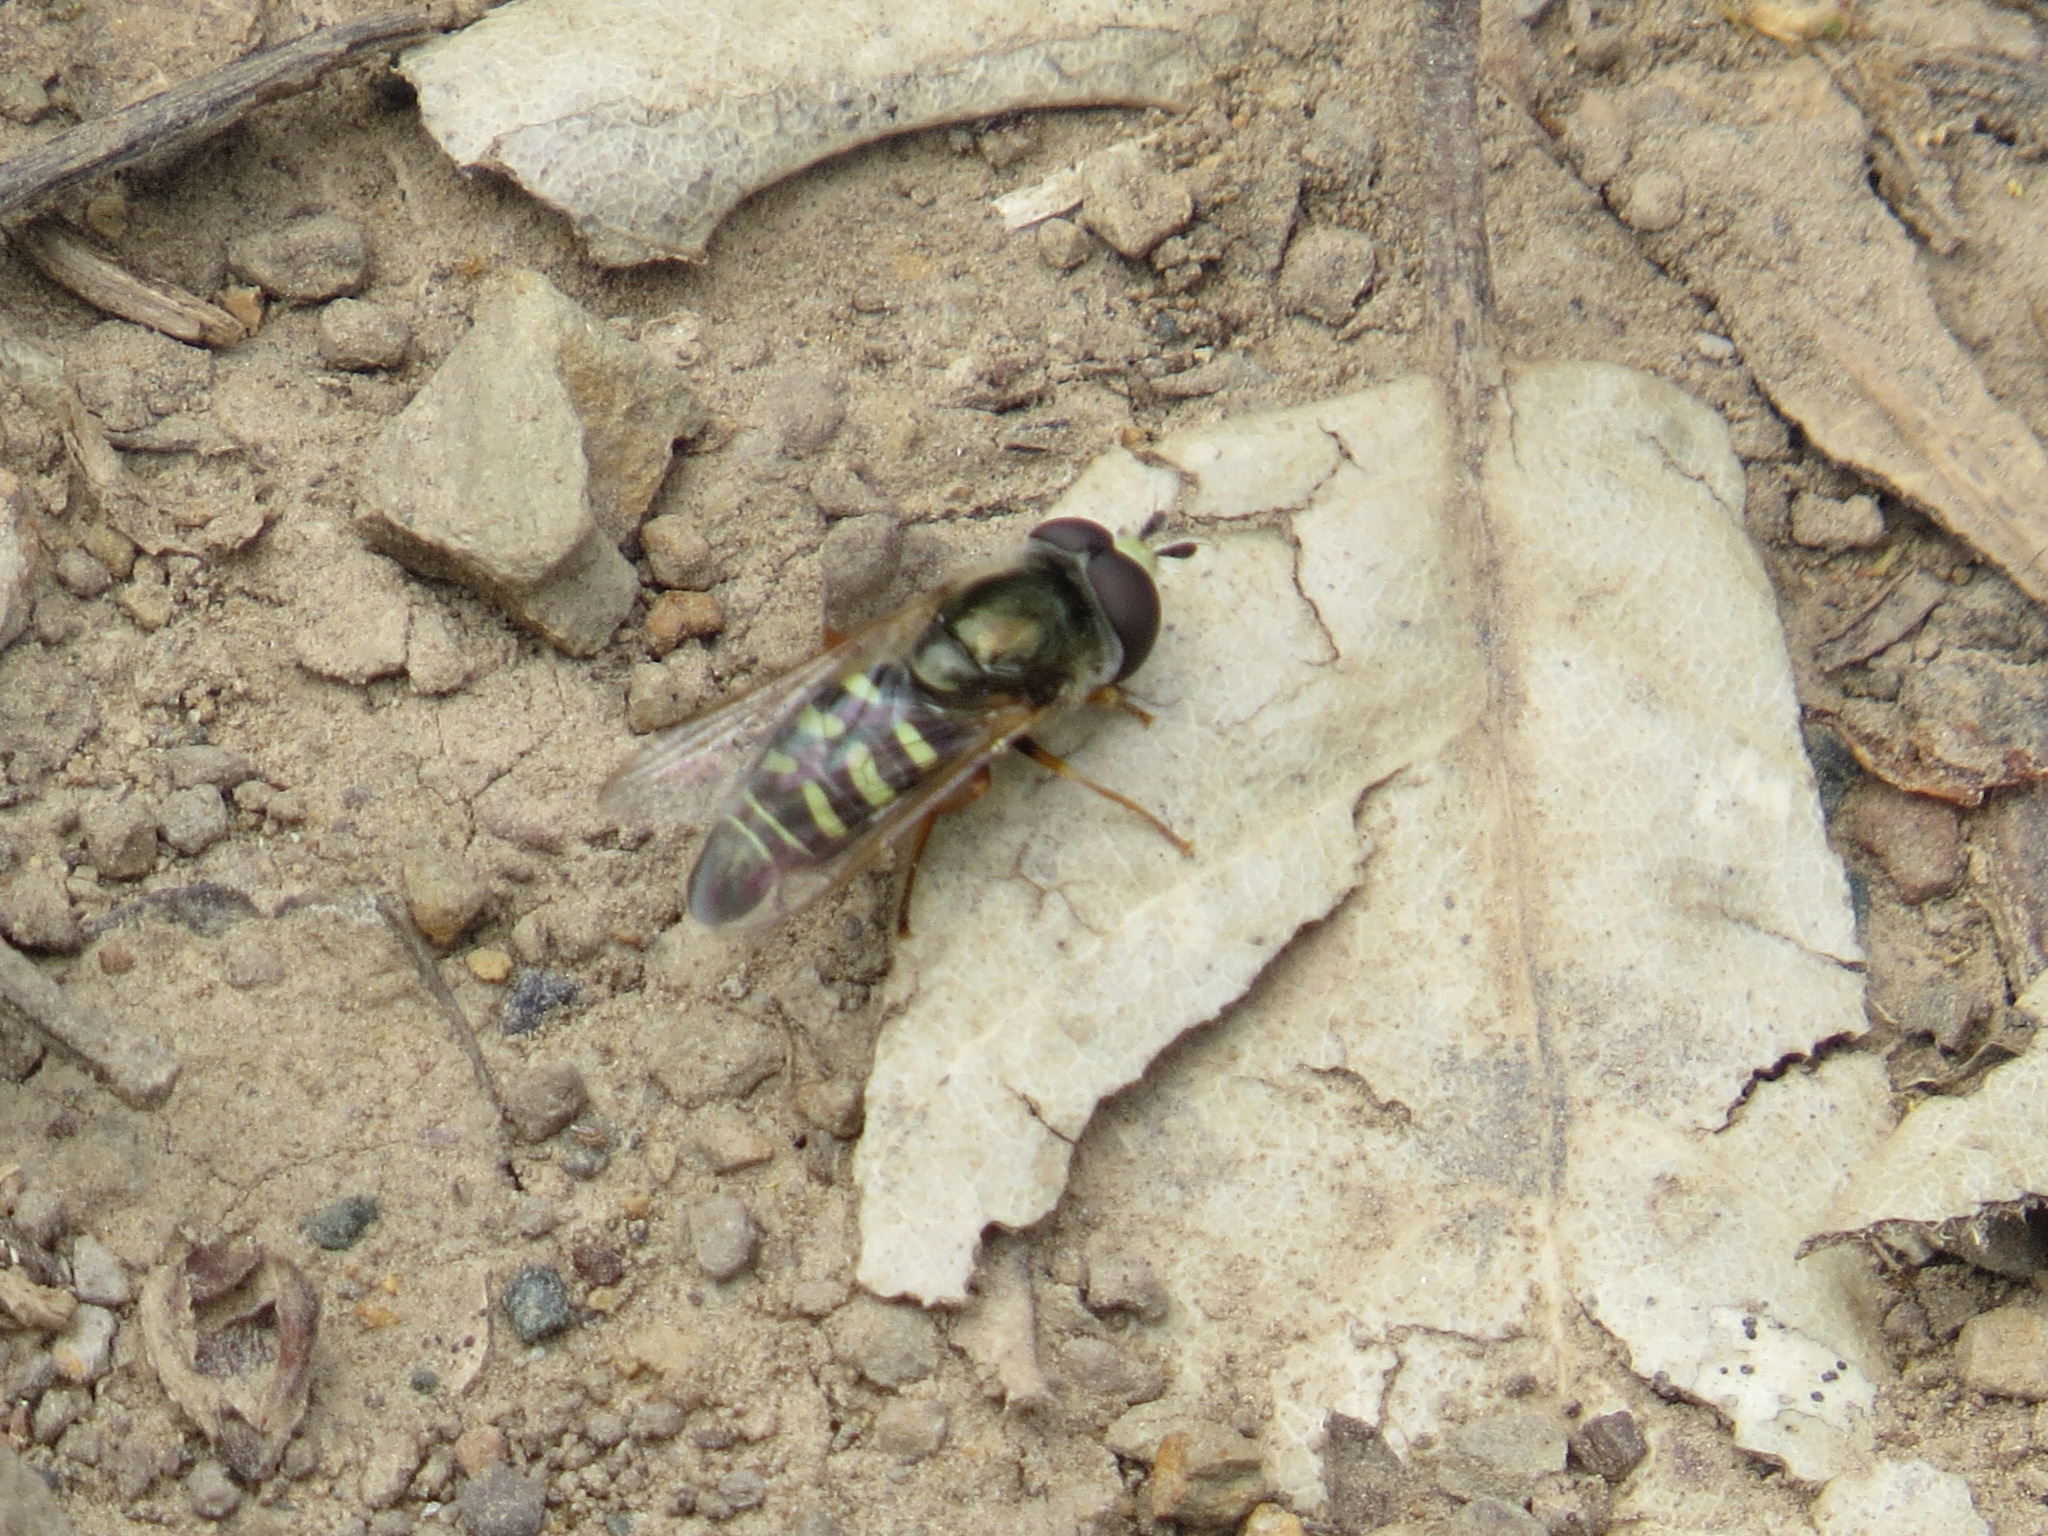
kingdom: Animalia
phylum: Arthropoda
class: Insecta
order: Diptera
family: Syrphidae
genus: Eupeodes
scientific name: Eupeodes volucris
